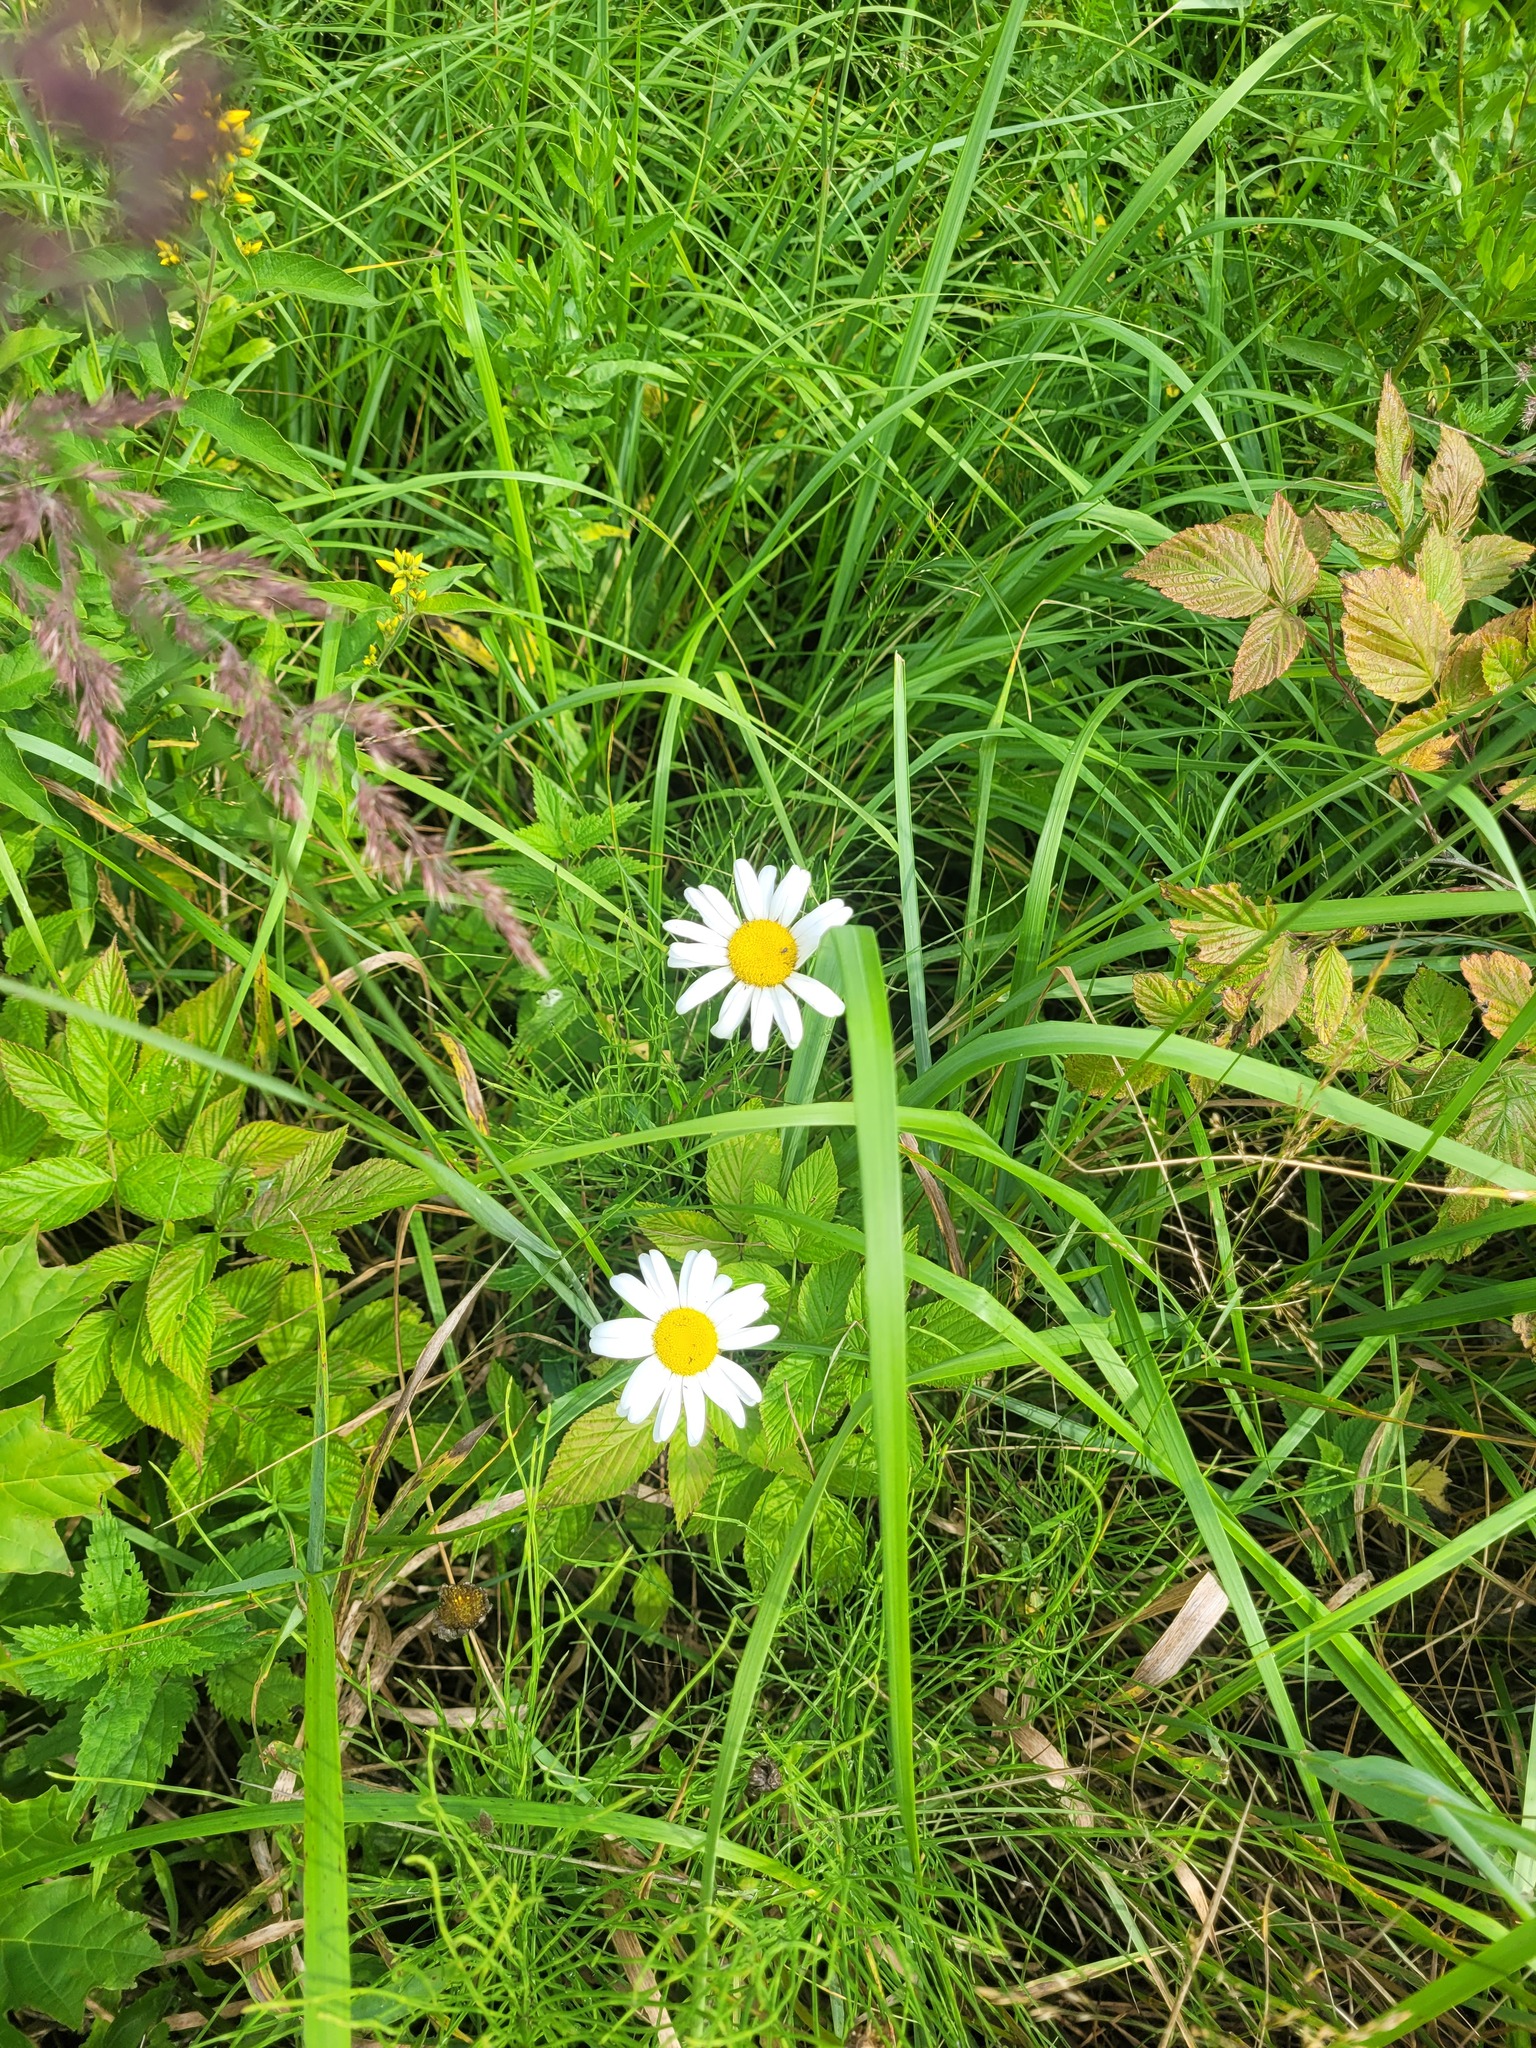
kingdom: Plantae
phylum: Tracheophyta
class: Magnoliopsida
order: Asterales
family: Asteraceae
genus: Leucanthemum
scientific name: Leucanthemum vulgare
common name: Oxeye daisy
